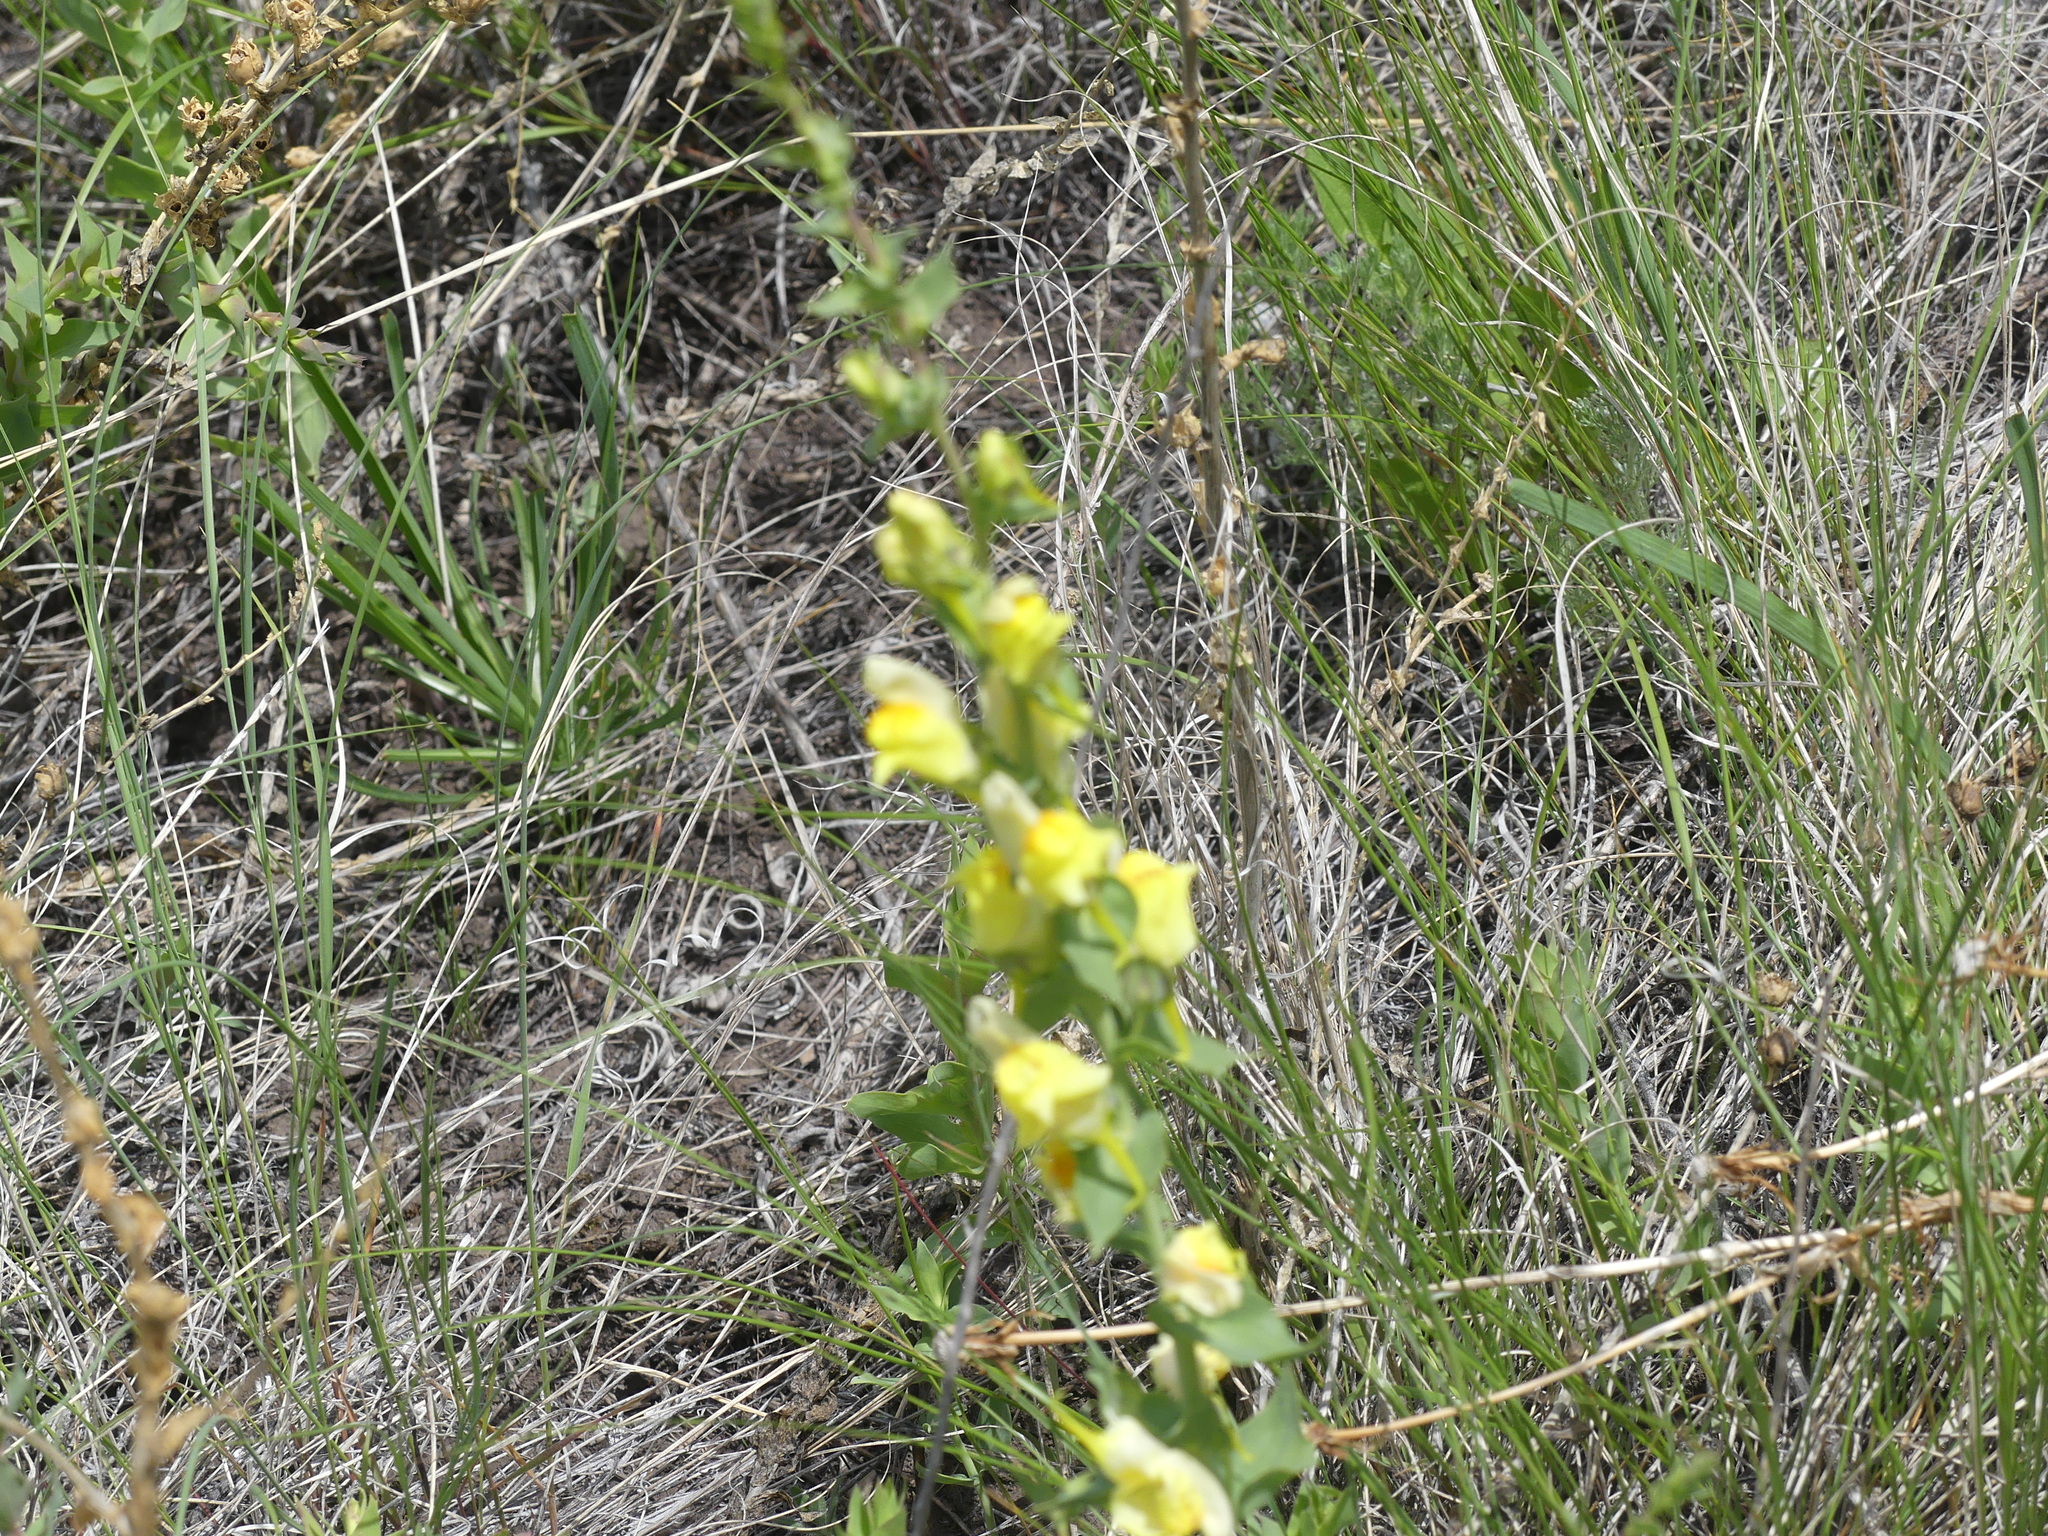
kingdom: Plantae
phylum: Tracheophyta
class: Magnoliopsida
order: Lamiales
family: Plantaginaceae
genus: Linaria
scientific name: Linaria dalmatica
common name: Dalmatian toadflax
